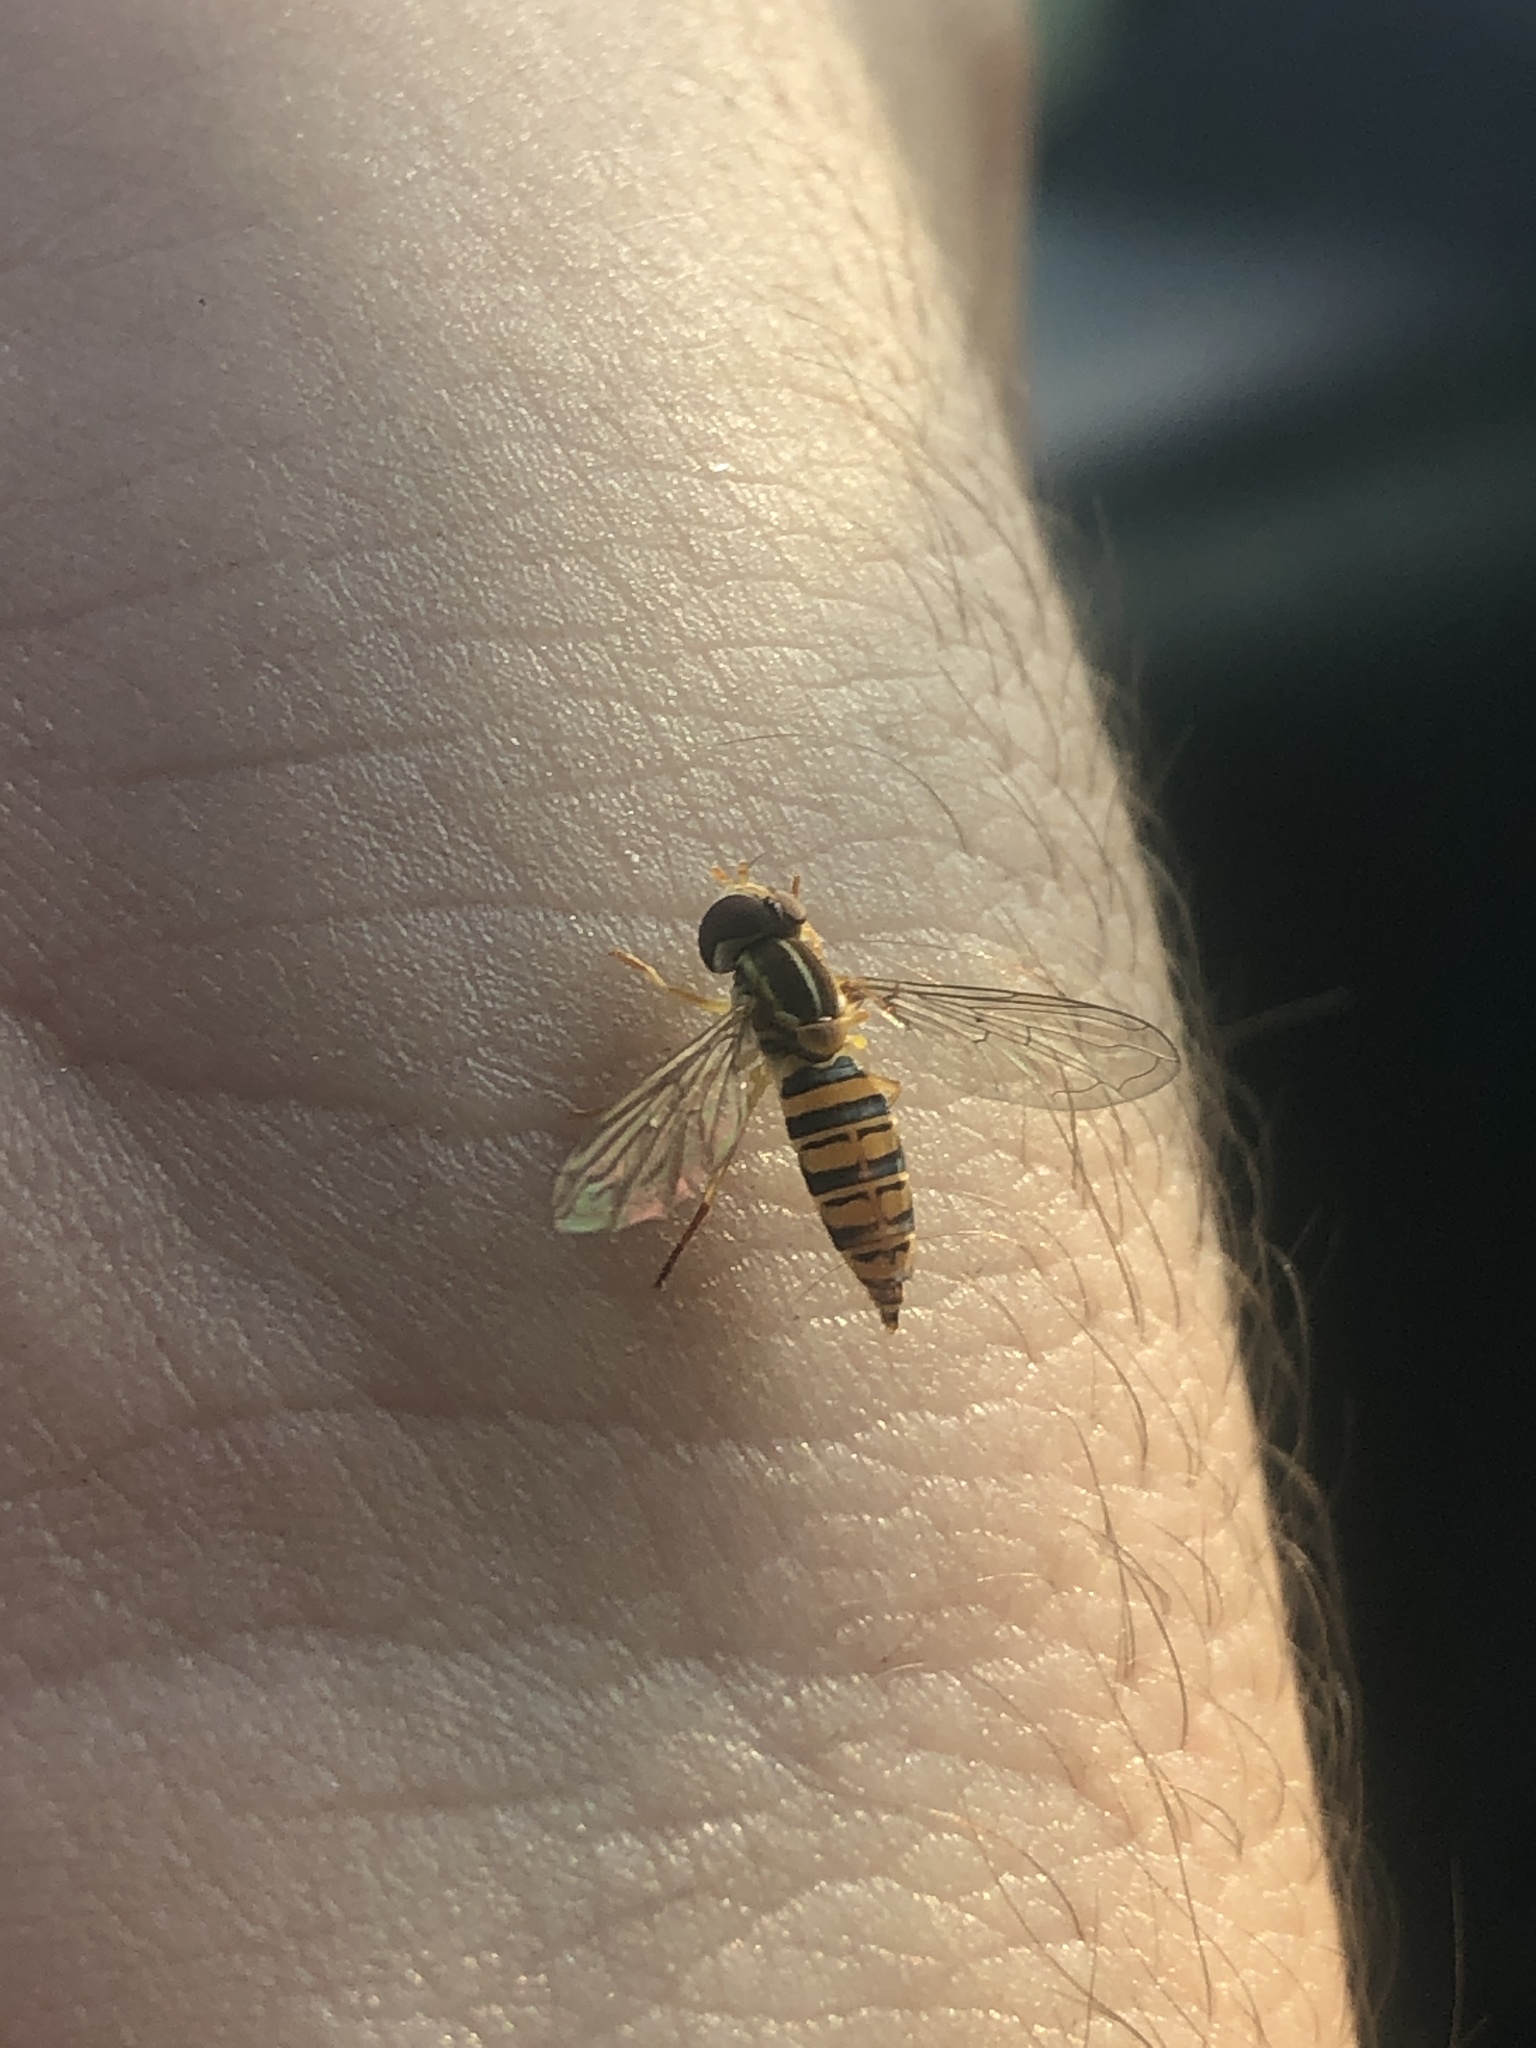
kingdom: Animalia
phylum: Arthropoda
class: Insecta
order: Diptera
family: Syrphidae
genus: Toxomerus
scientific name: Toxomerus politus
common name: Maize calligrapher
